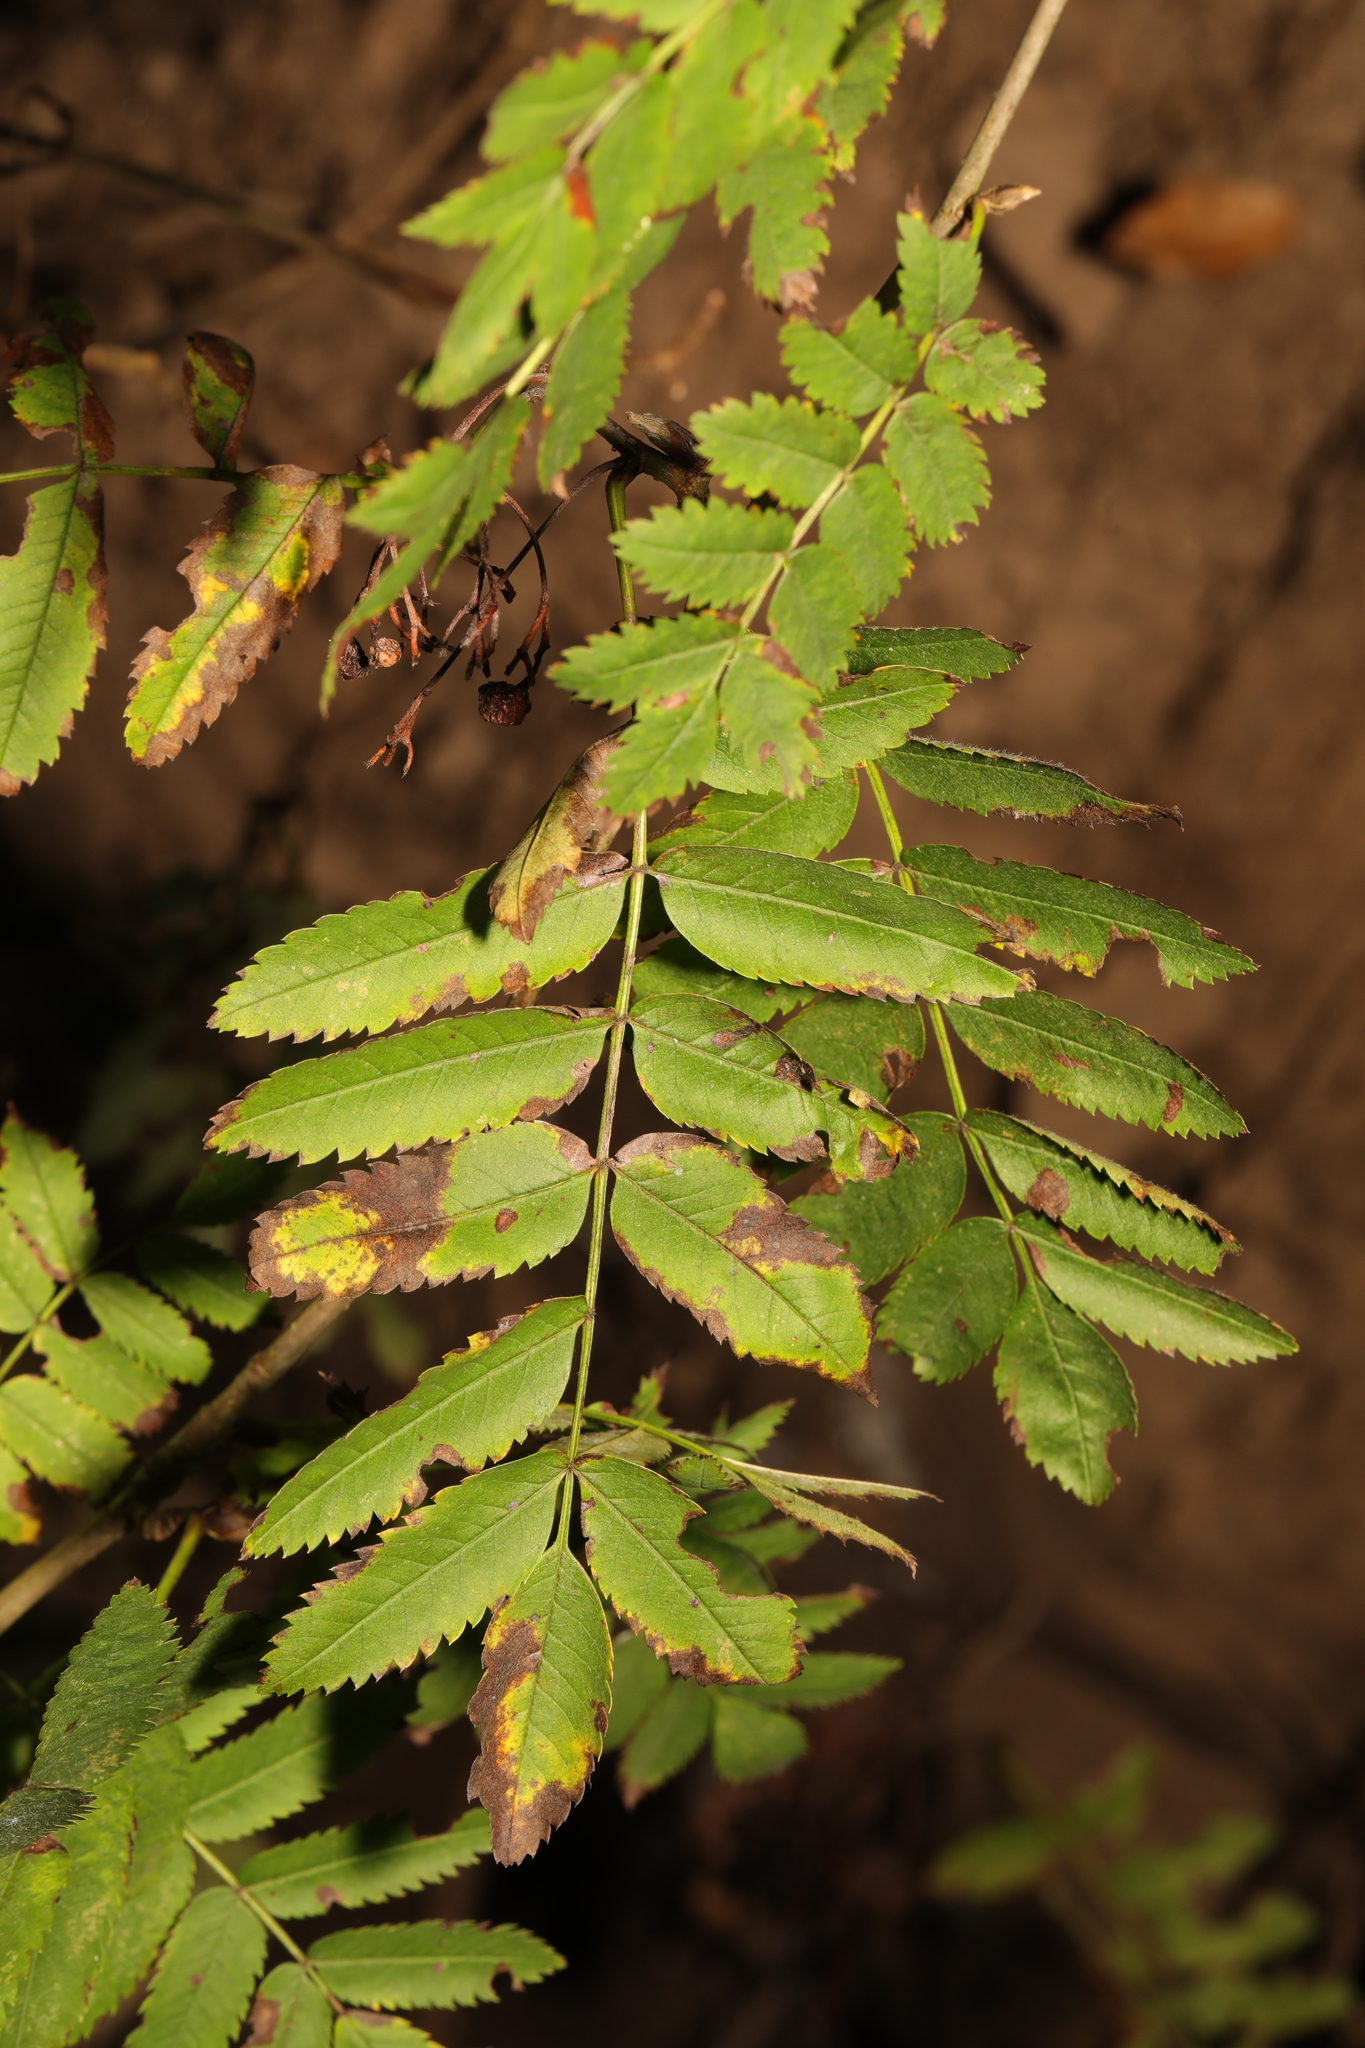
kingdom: Plantae
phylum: Tracheophyta
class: Magnoliopsida
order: Rosales
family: Rosaceae
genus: Sorbus
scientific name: Sorbus aucuparia
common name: Rowan
